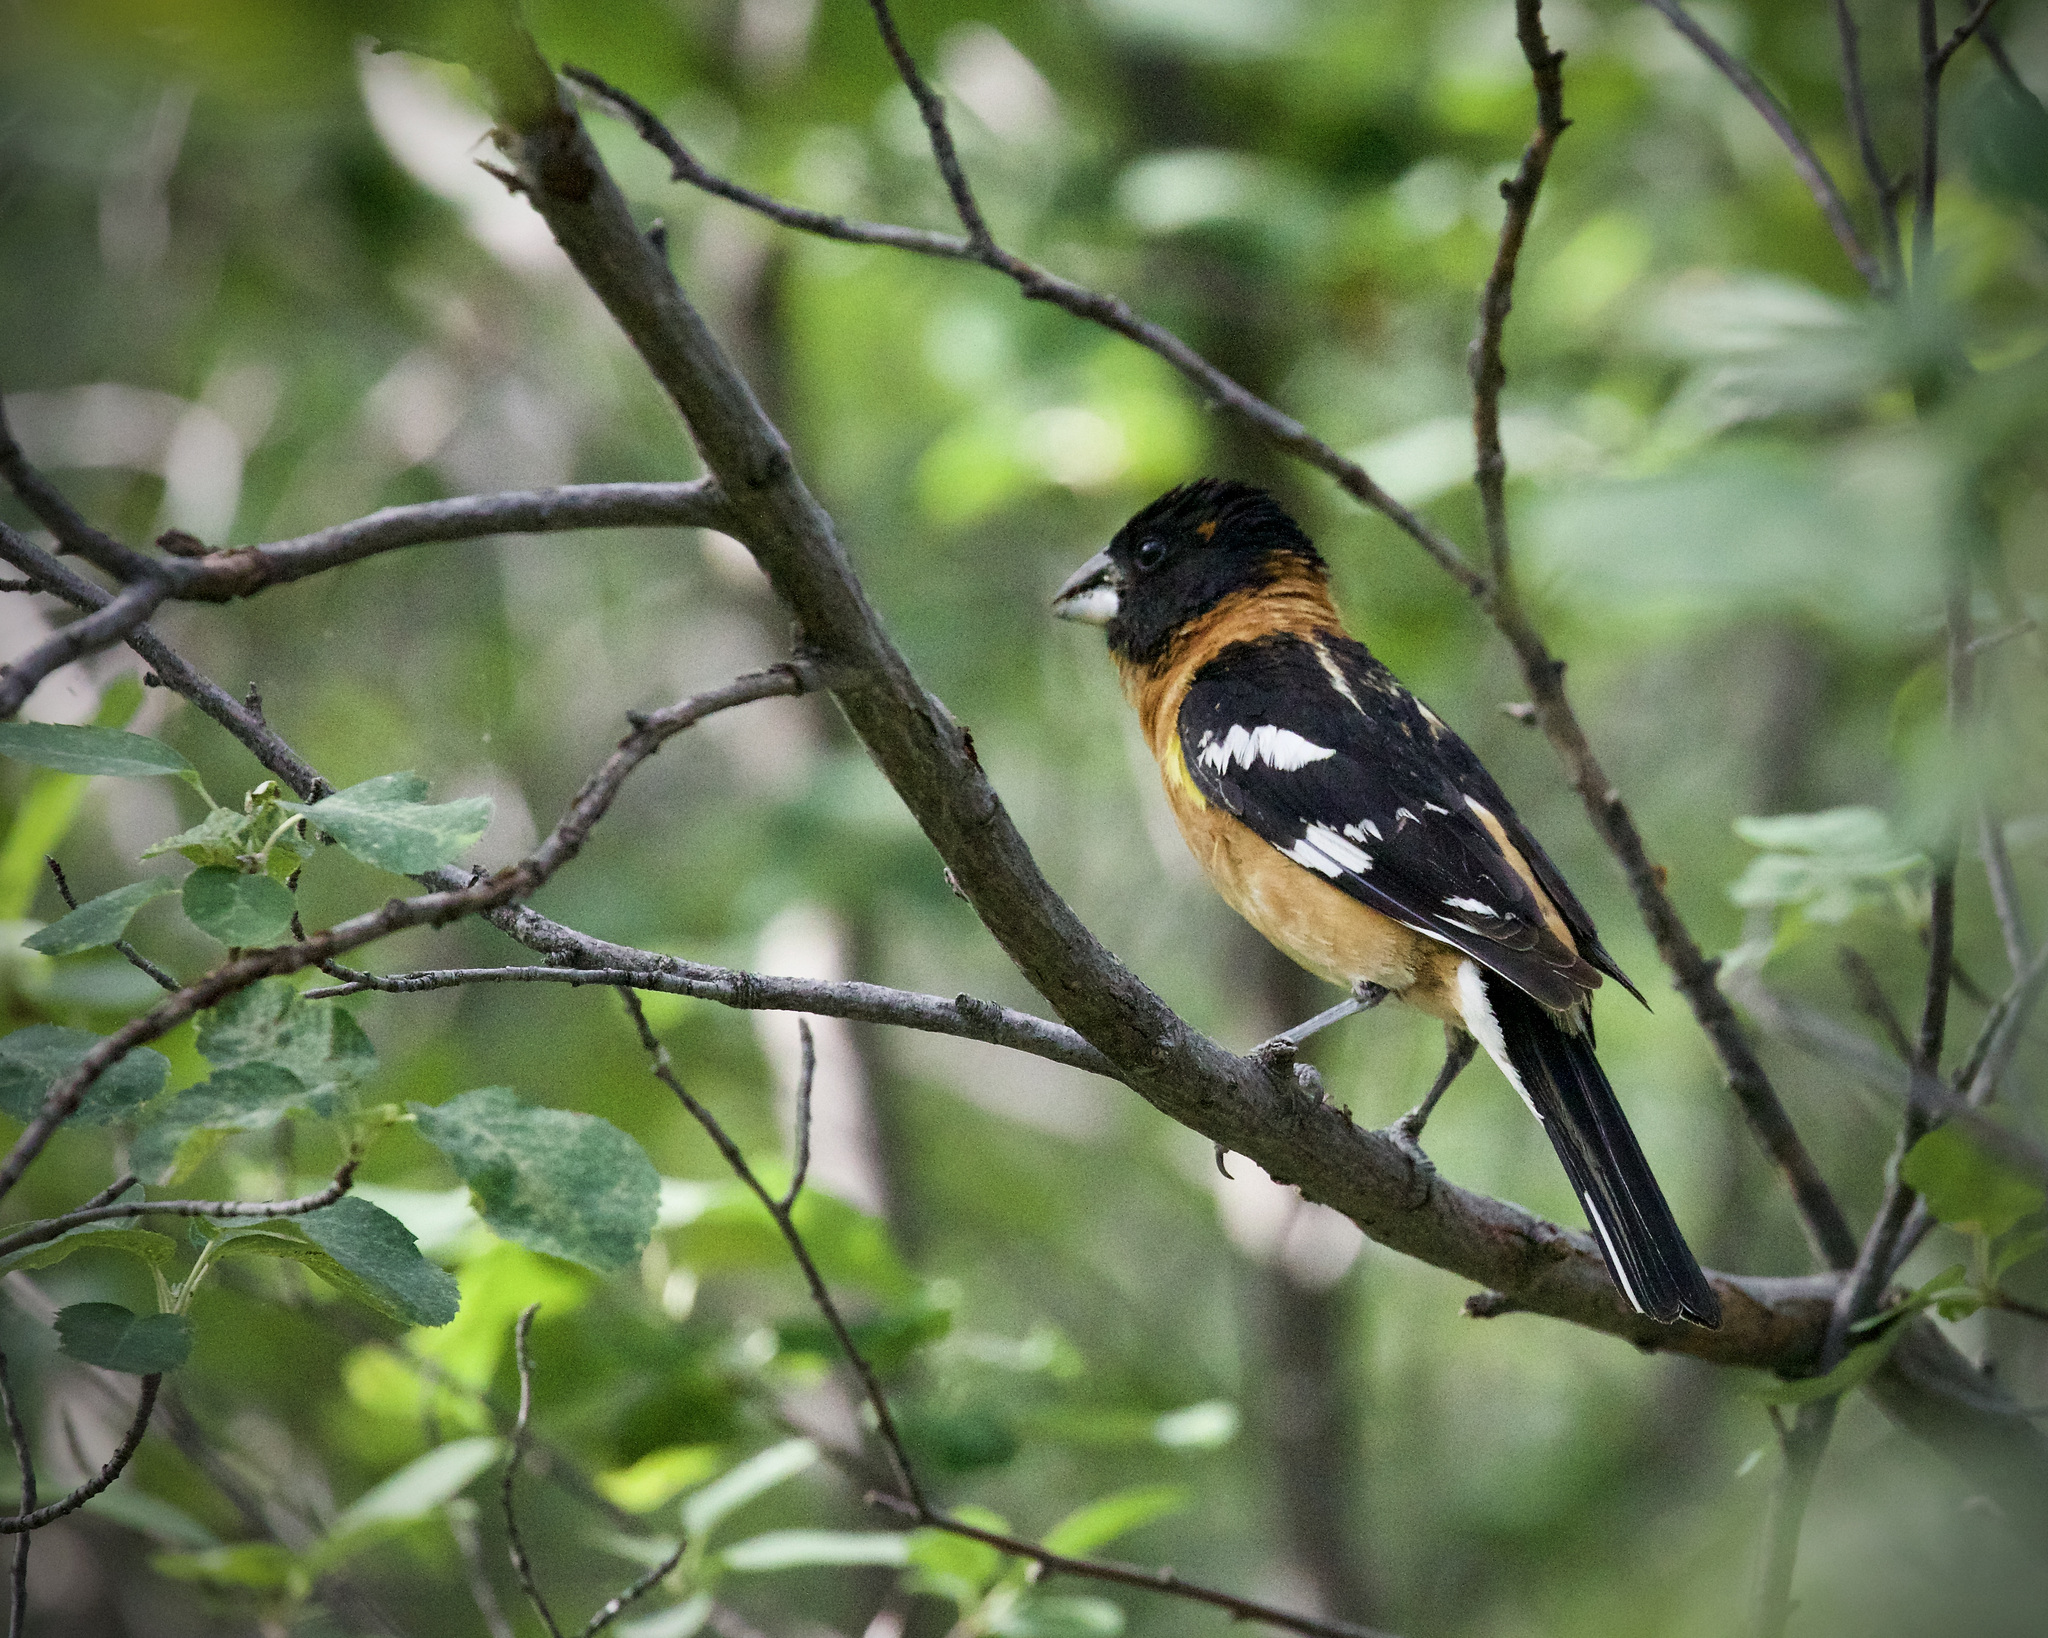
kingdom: Animalia
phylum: Chordata
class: Aves
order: Passeriformes
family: Cardinalidae
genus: Pheucticus
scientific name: Pheucticus melanocephalus
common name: Black-headed grosbeak
